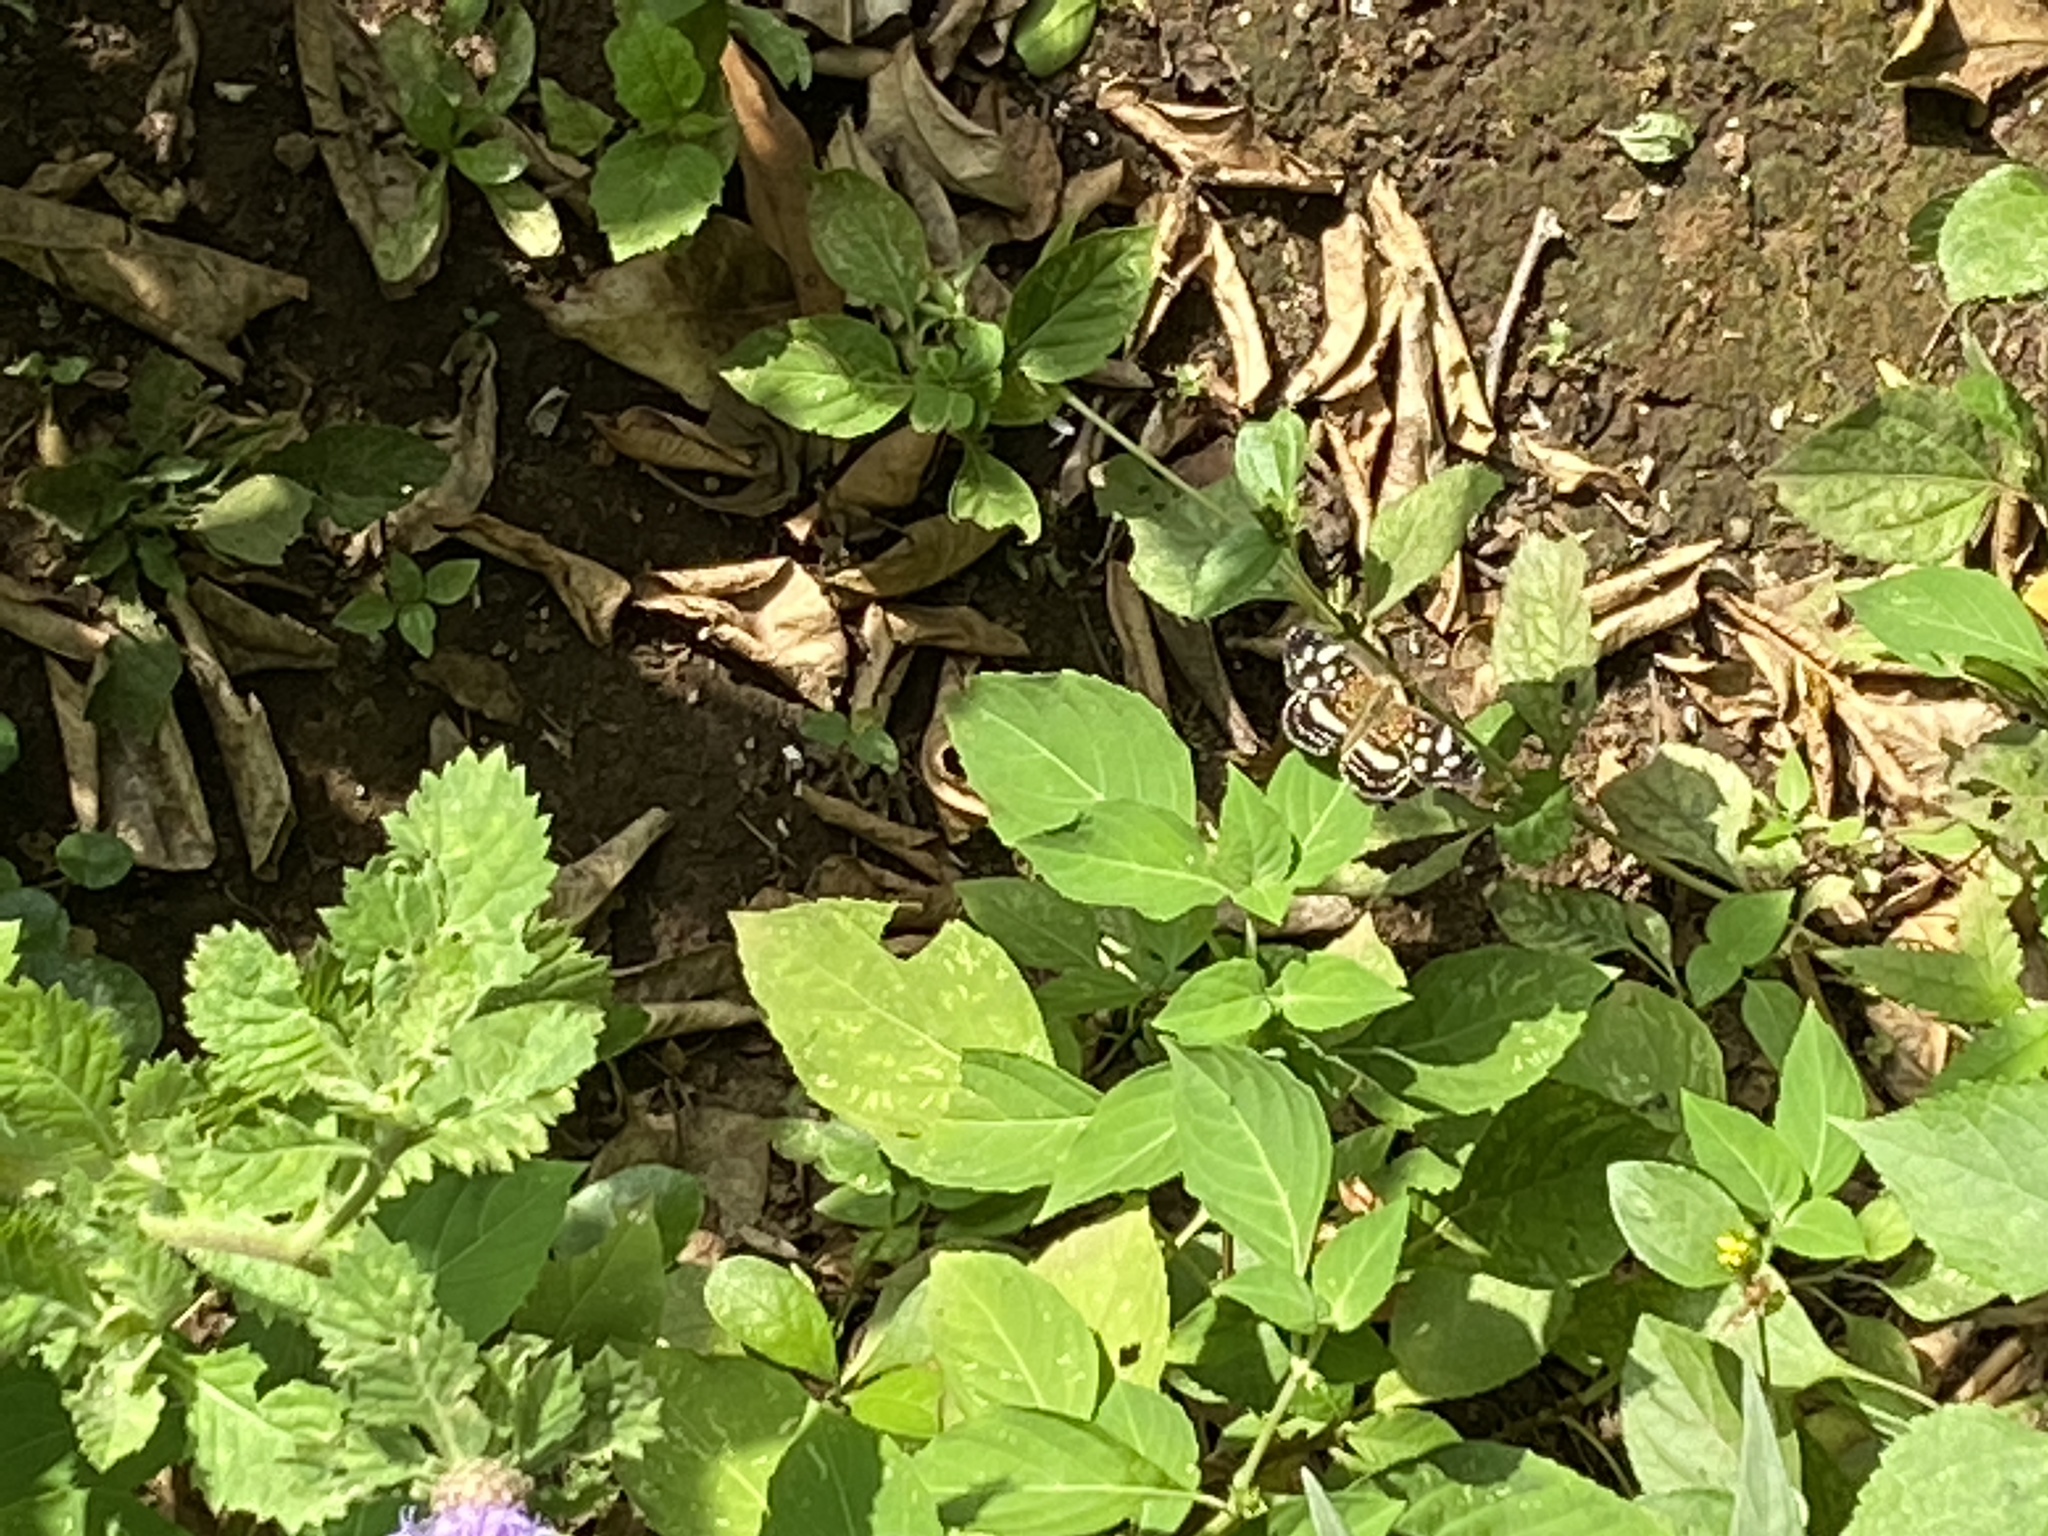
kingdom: Animalia
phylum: Arthropoda
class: Insecta
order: Lepidoptera
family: Nymphalidae
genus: Anthanassa
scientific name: Anthanassa tulcis
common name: Pale-banded crescent
